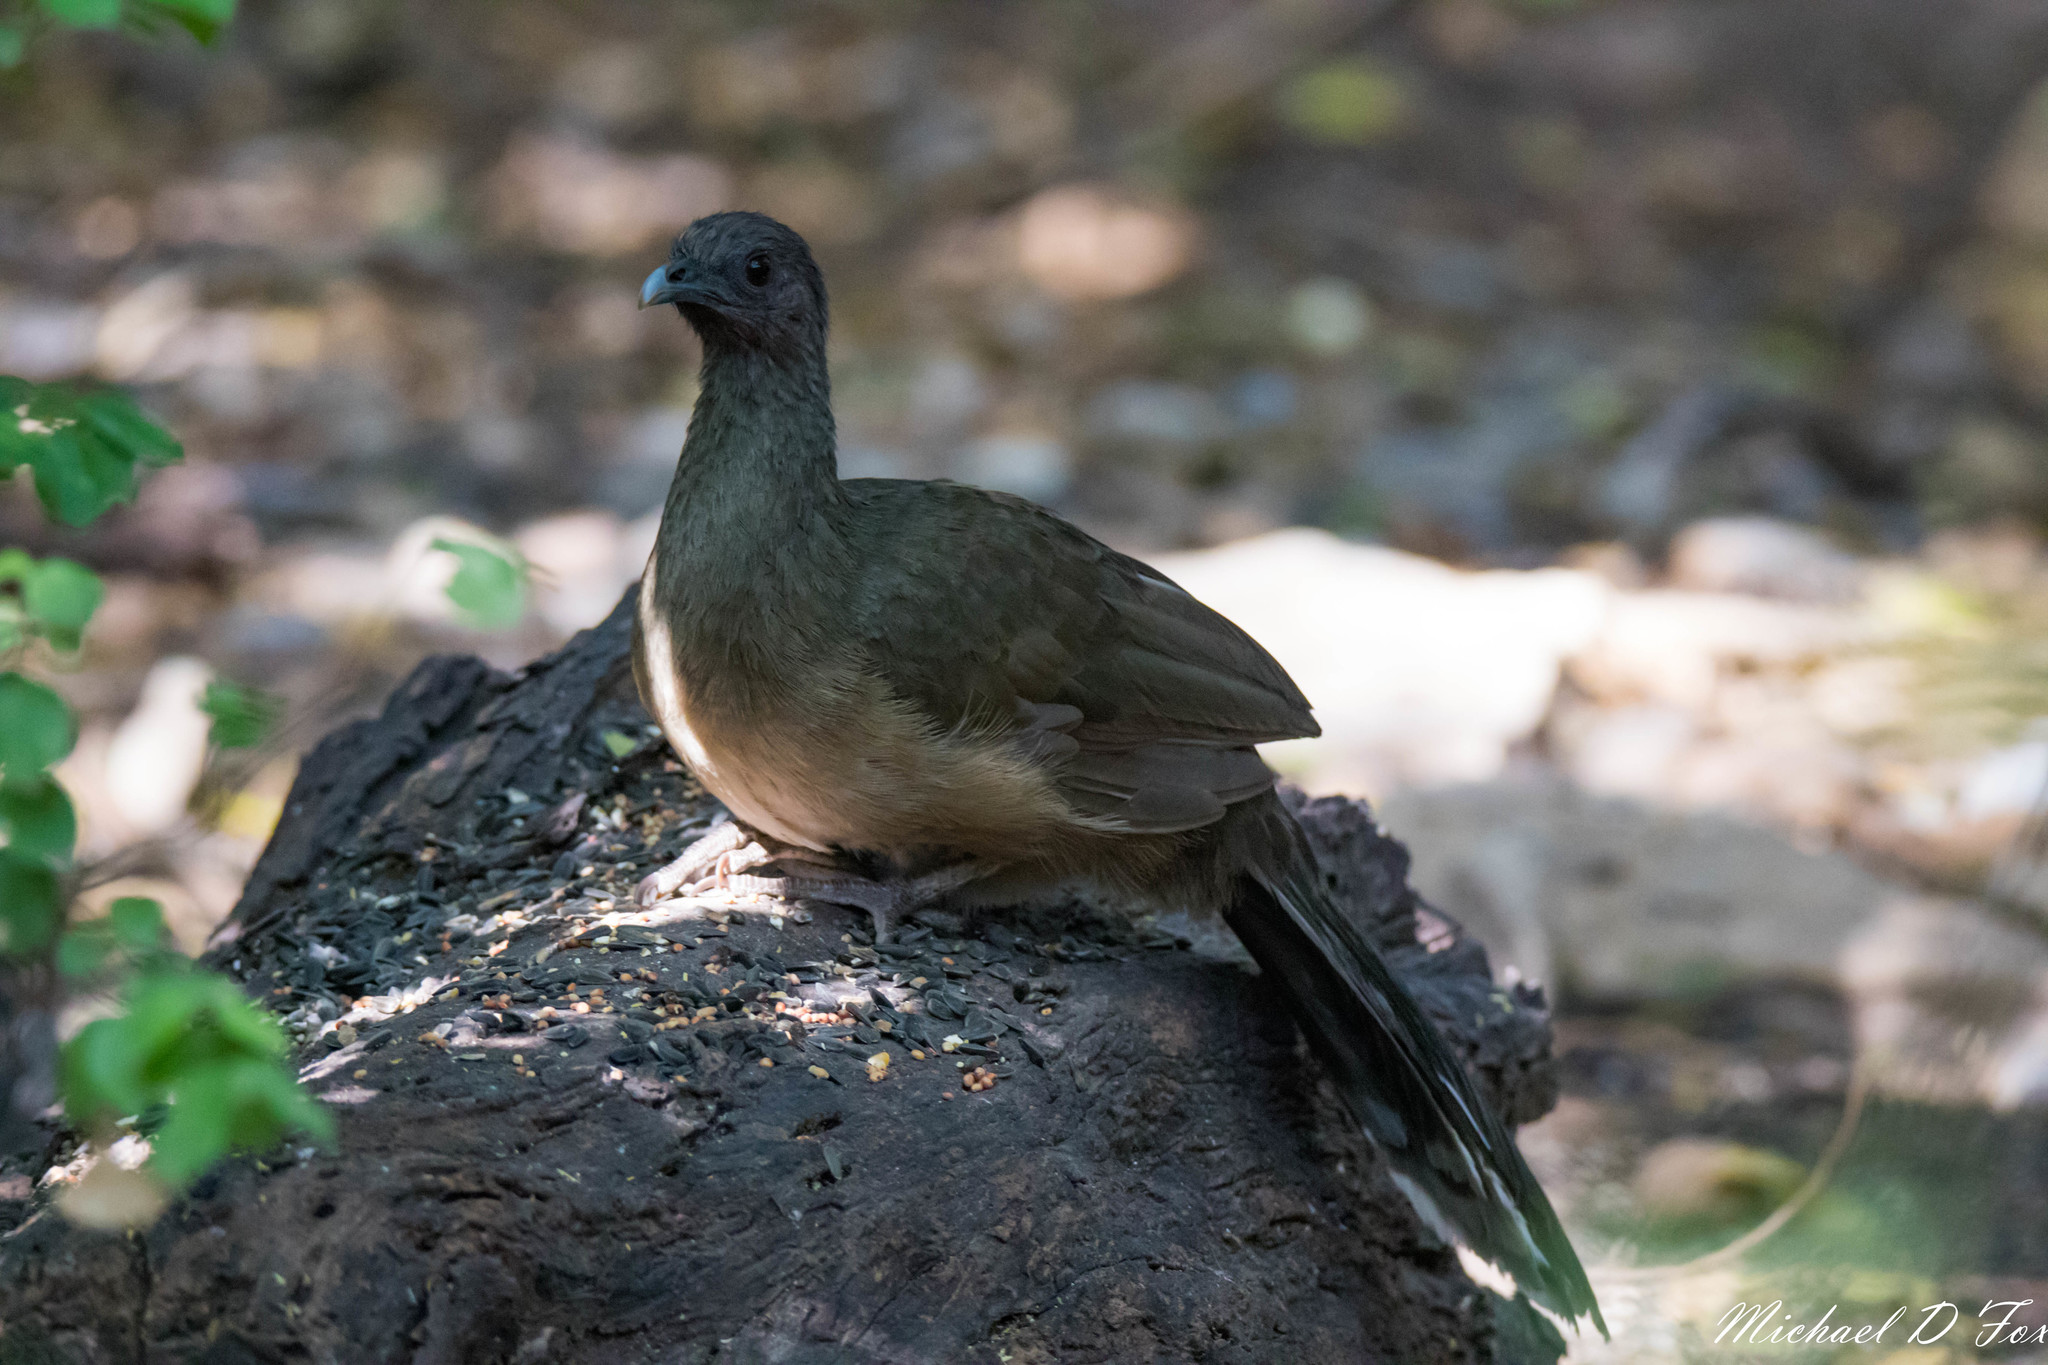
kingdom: Animalia
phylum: Chordata
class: Aves
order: Galliformes
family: Cracidae
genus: Ortalis
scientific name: Ortalis vetula
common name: Plain chachalaca
